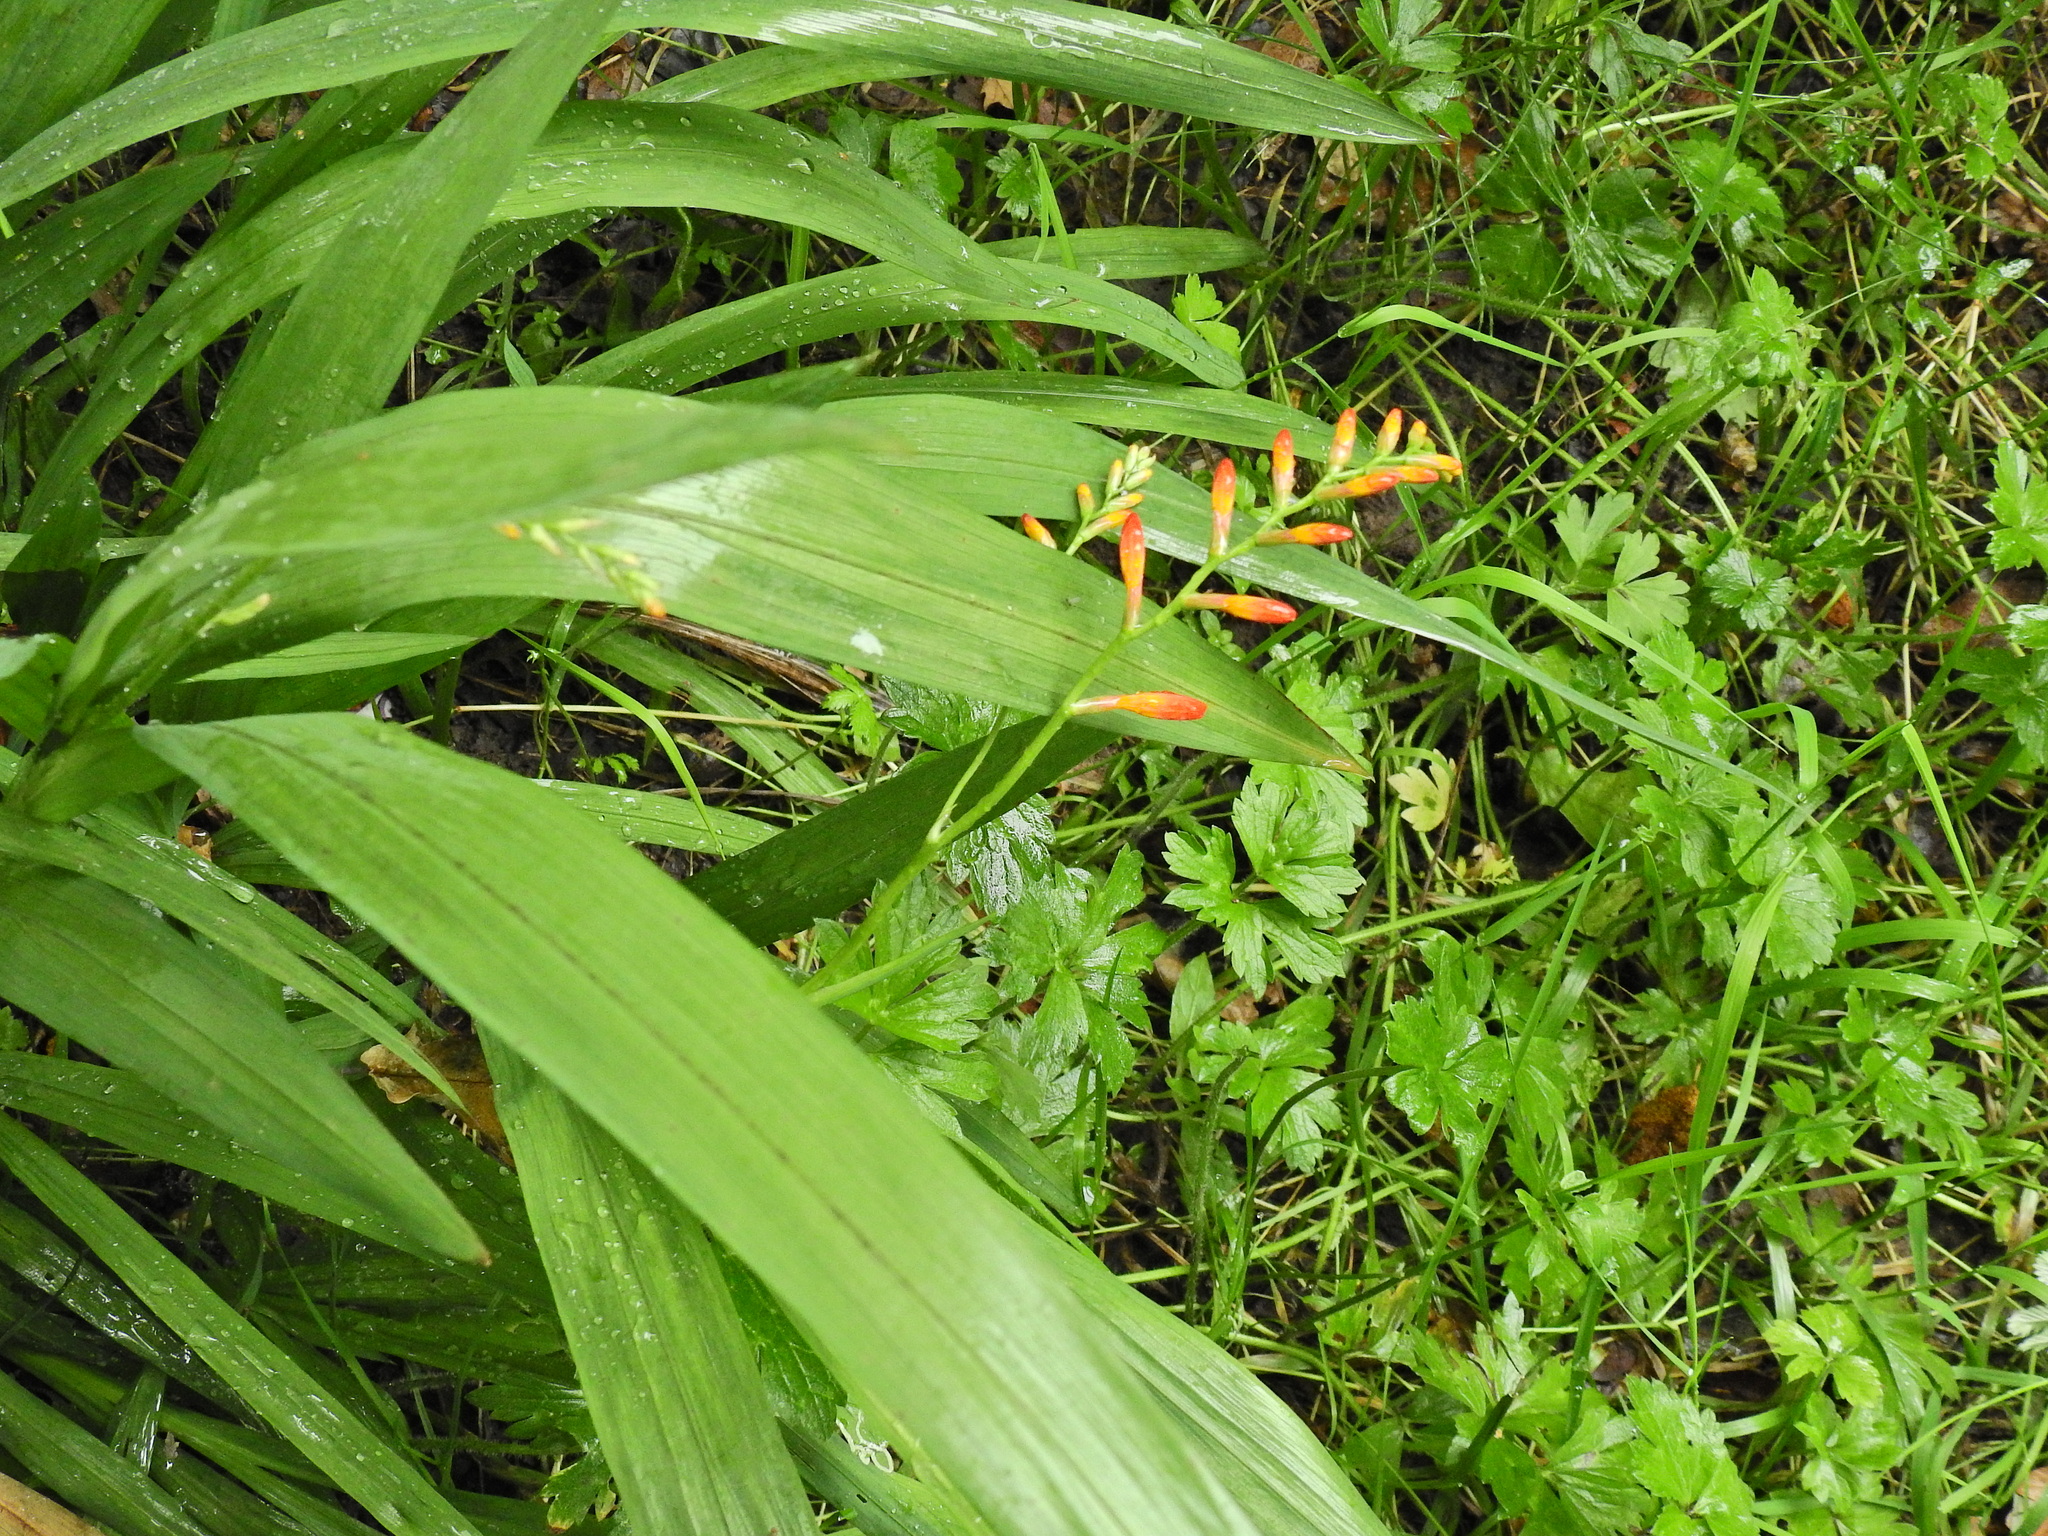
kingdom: Plantae
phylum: Tracheophyta
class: Liliopsida
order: Asparagales
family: Iridaceae
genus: Crocosmia
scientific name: Crocosmia crocosmiiflora
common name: Montbretia
